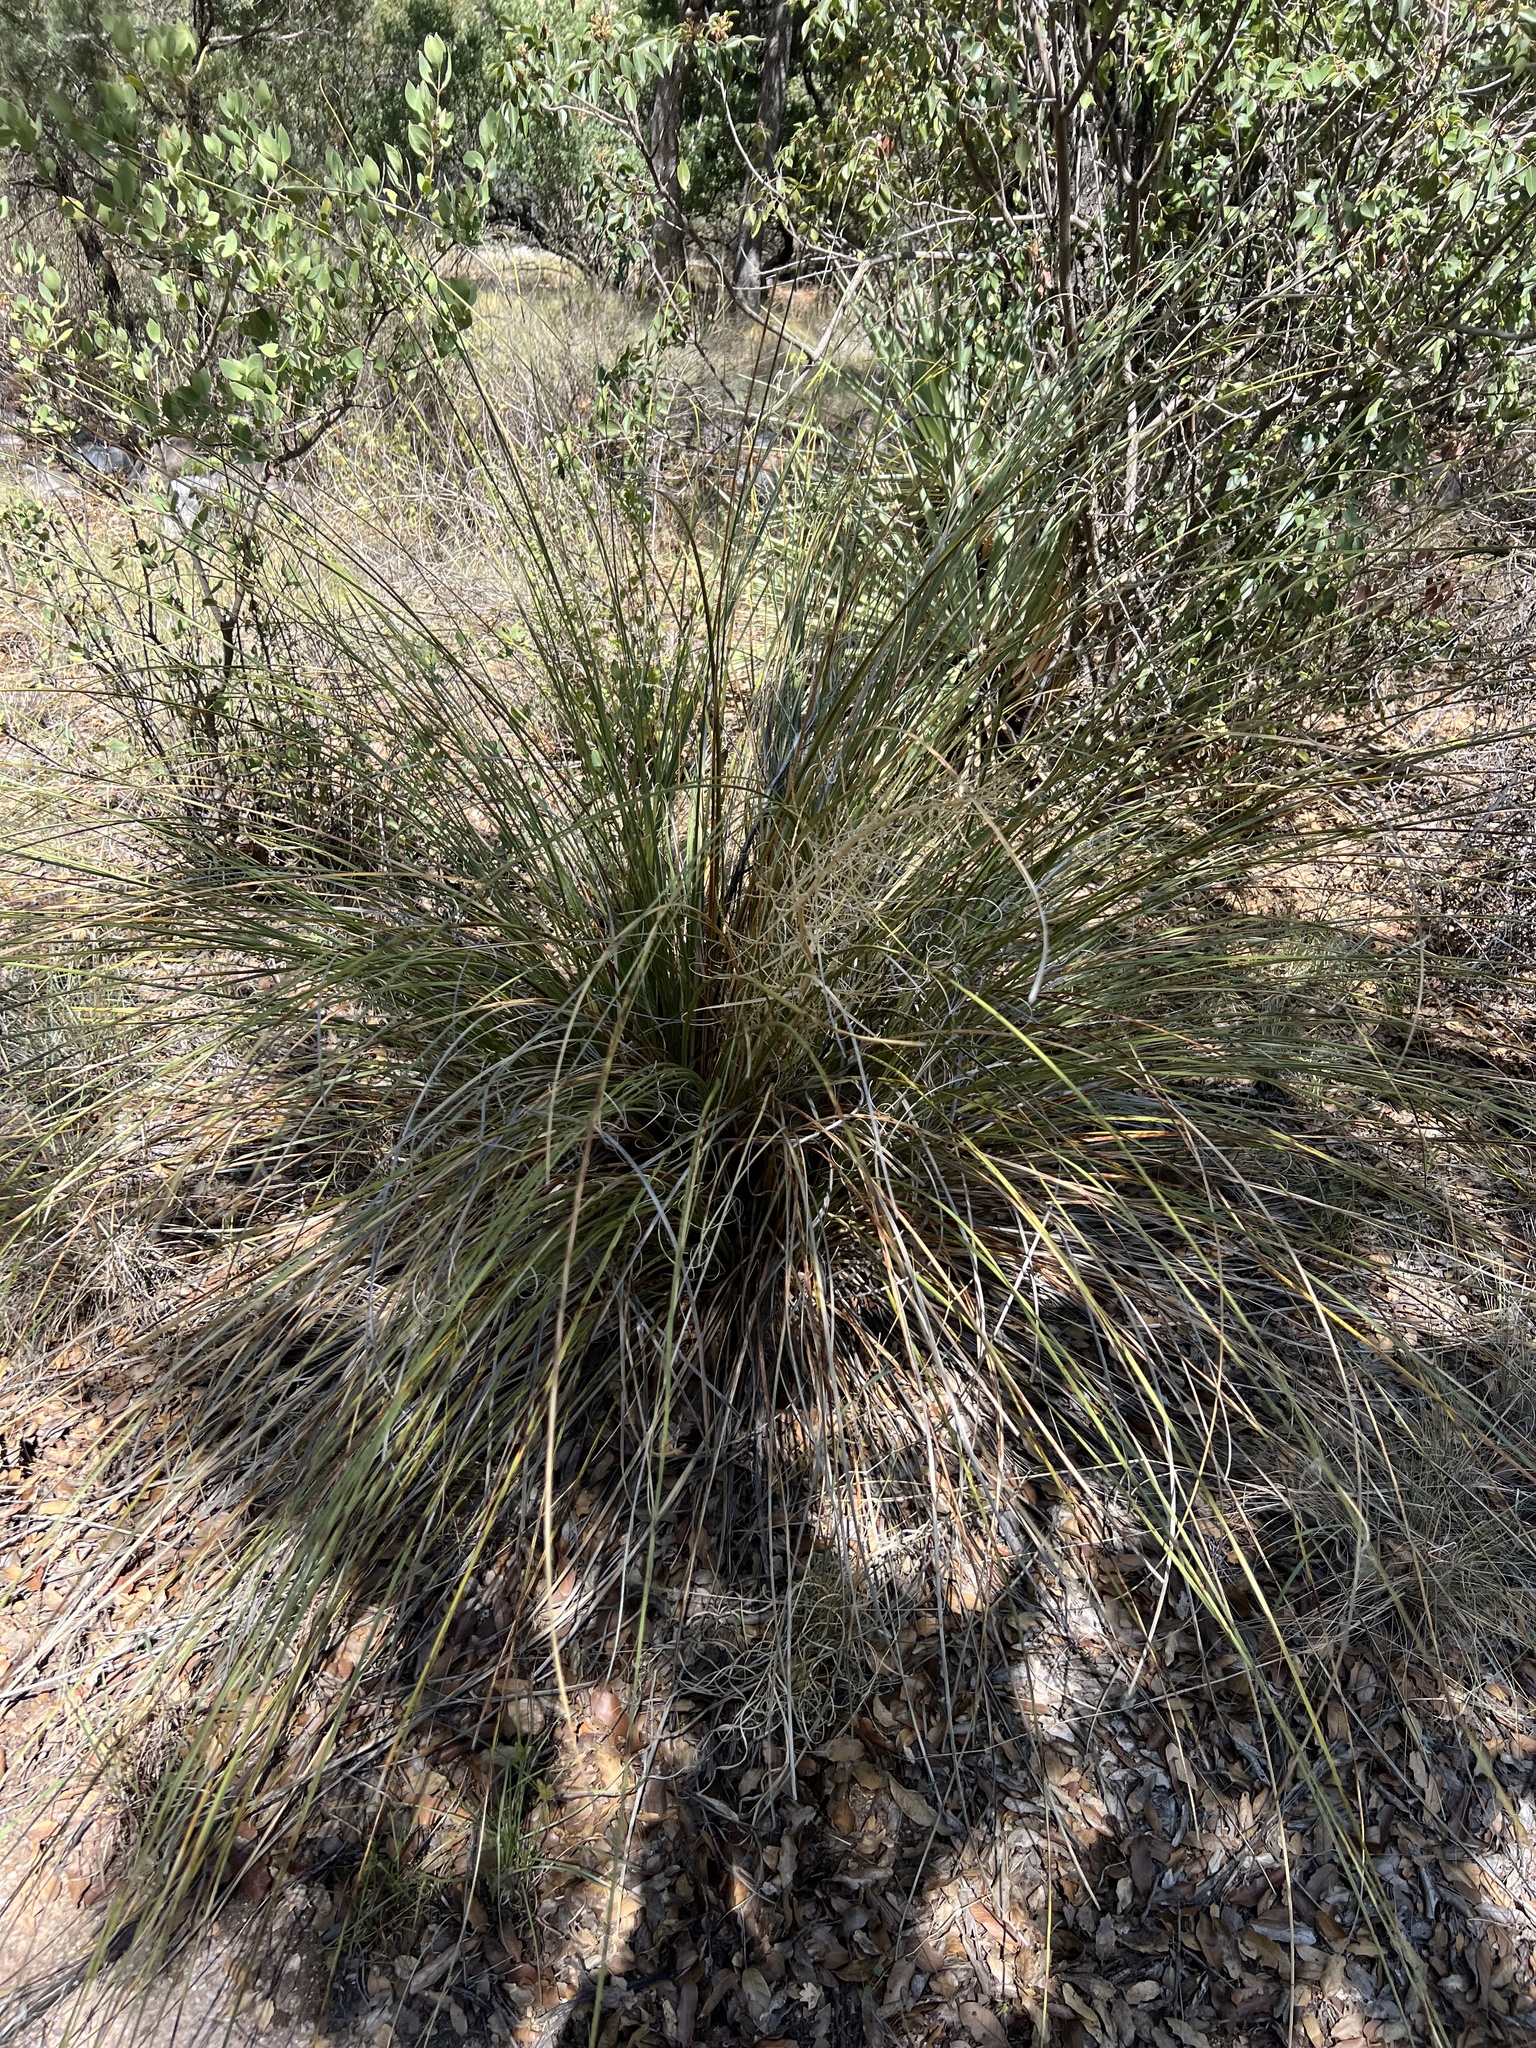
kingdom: Plantae
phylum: Tracheophyta
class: Liliopsida
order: Asparagales
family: Asparagaceae
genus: Nolina
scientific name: Nolina microcarpa
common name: Bear-grass
